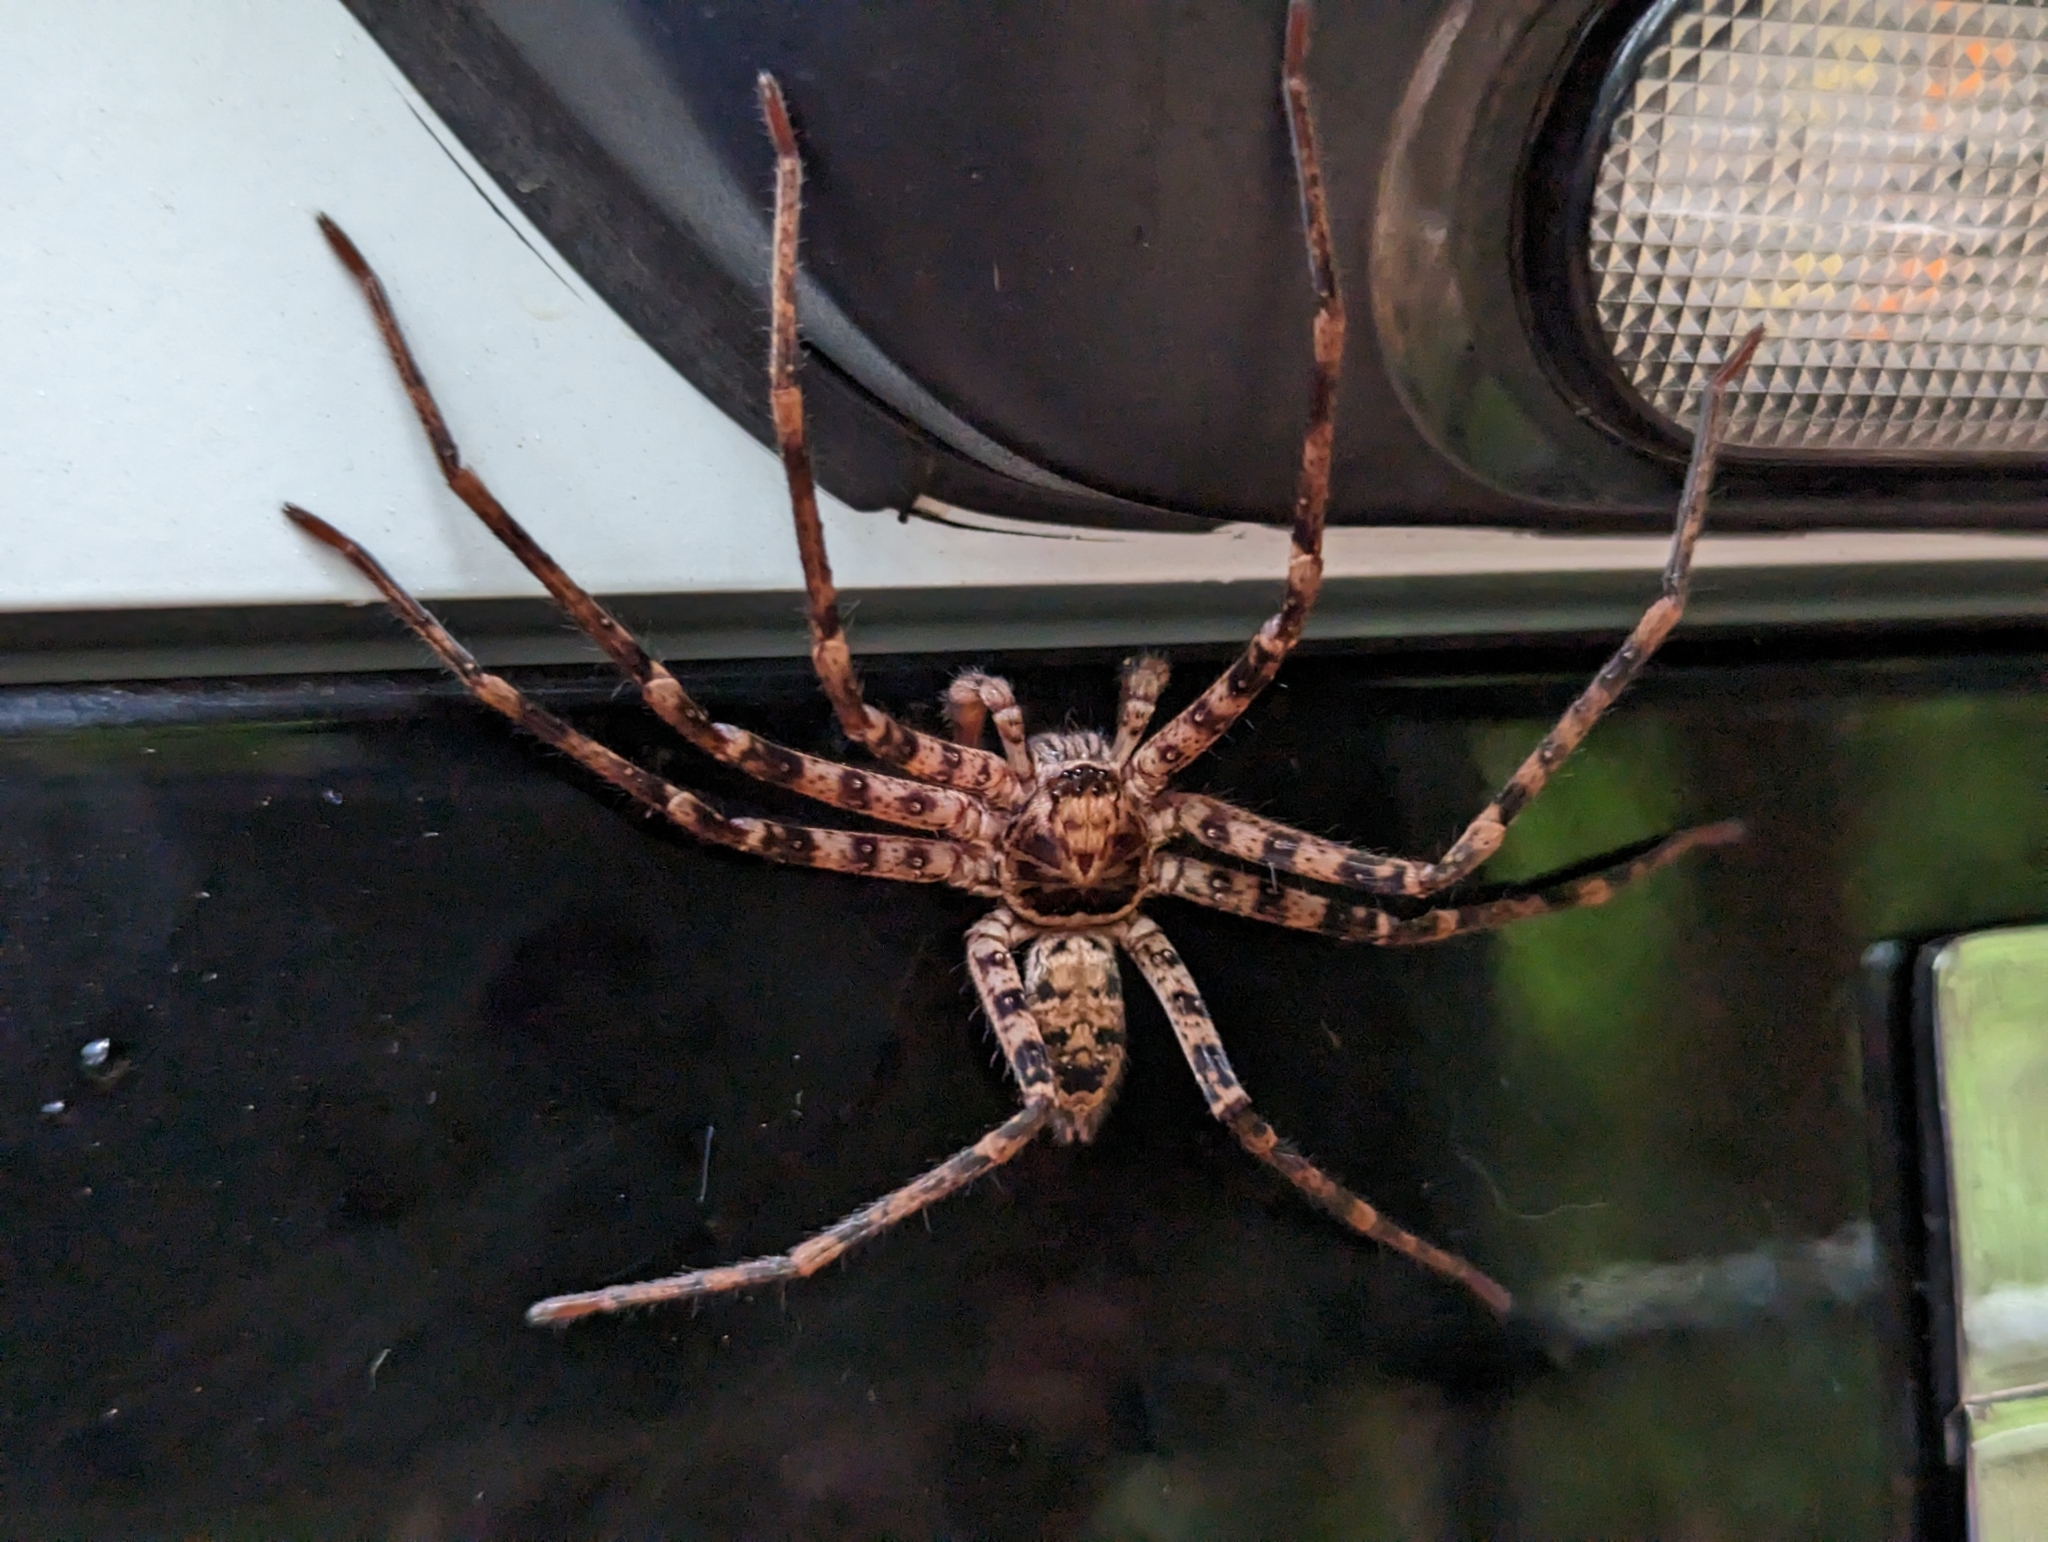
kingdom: Animalia
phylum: Arthropoda
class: Arachnida
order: Araneae
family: Sparassidae
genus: Heteropoda
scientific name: Heteropoda procera
